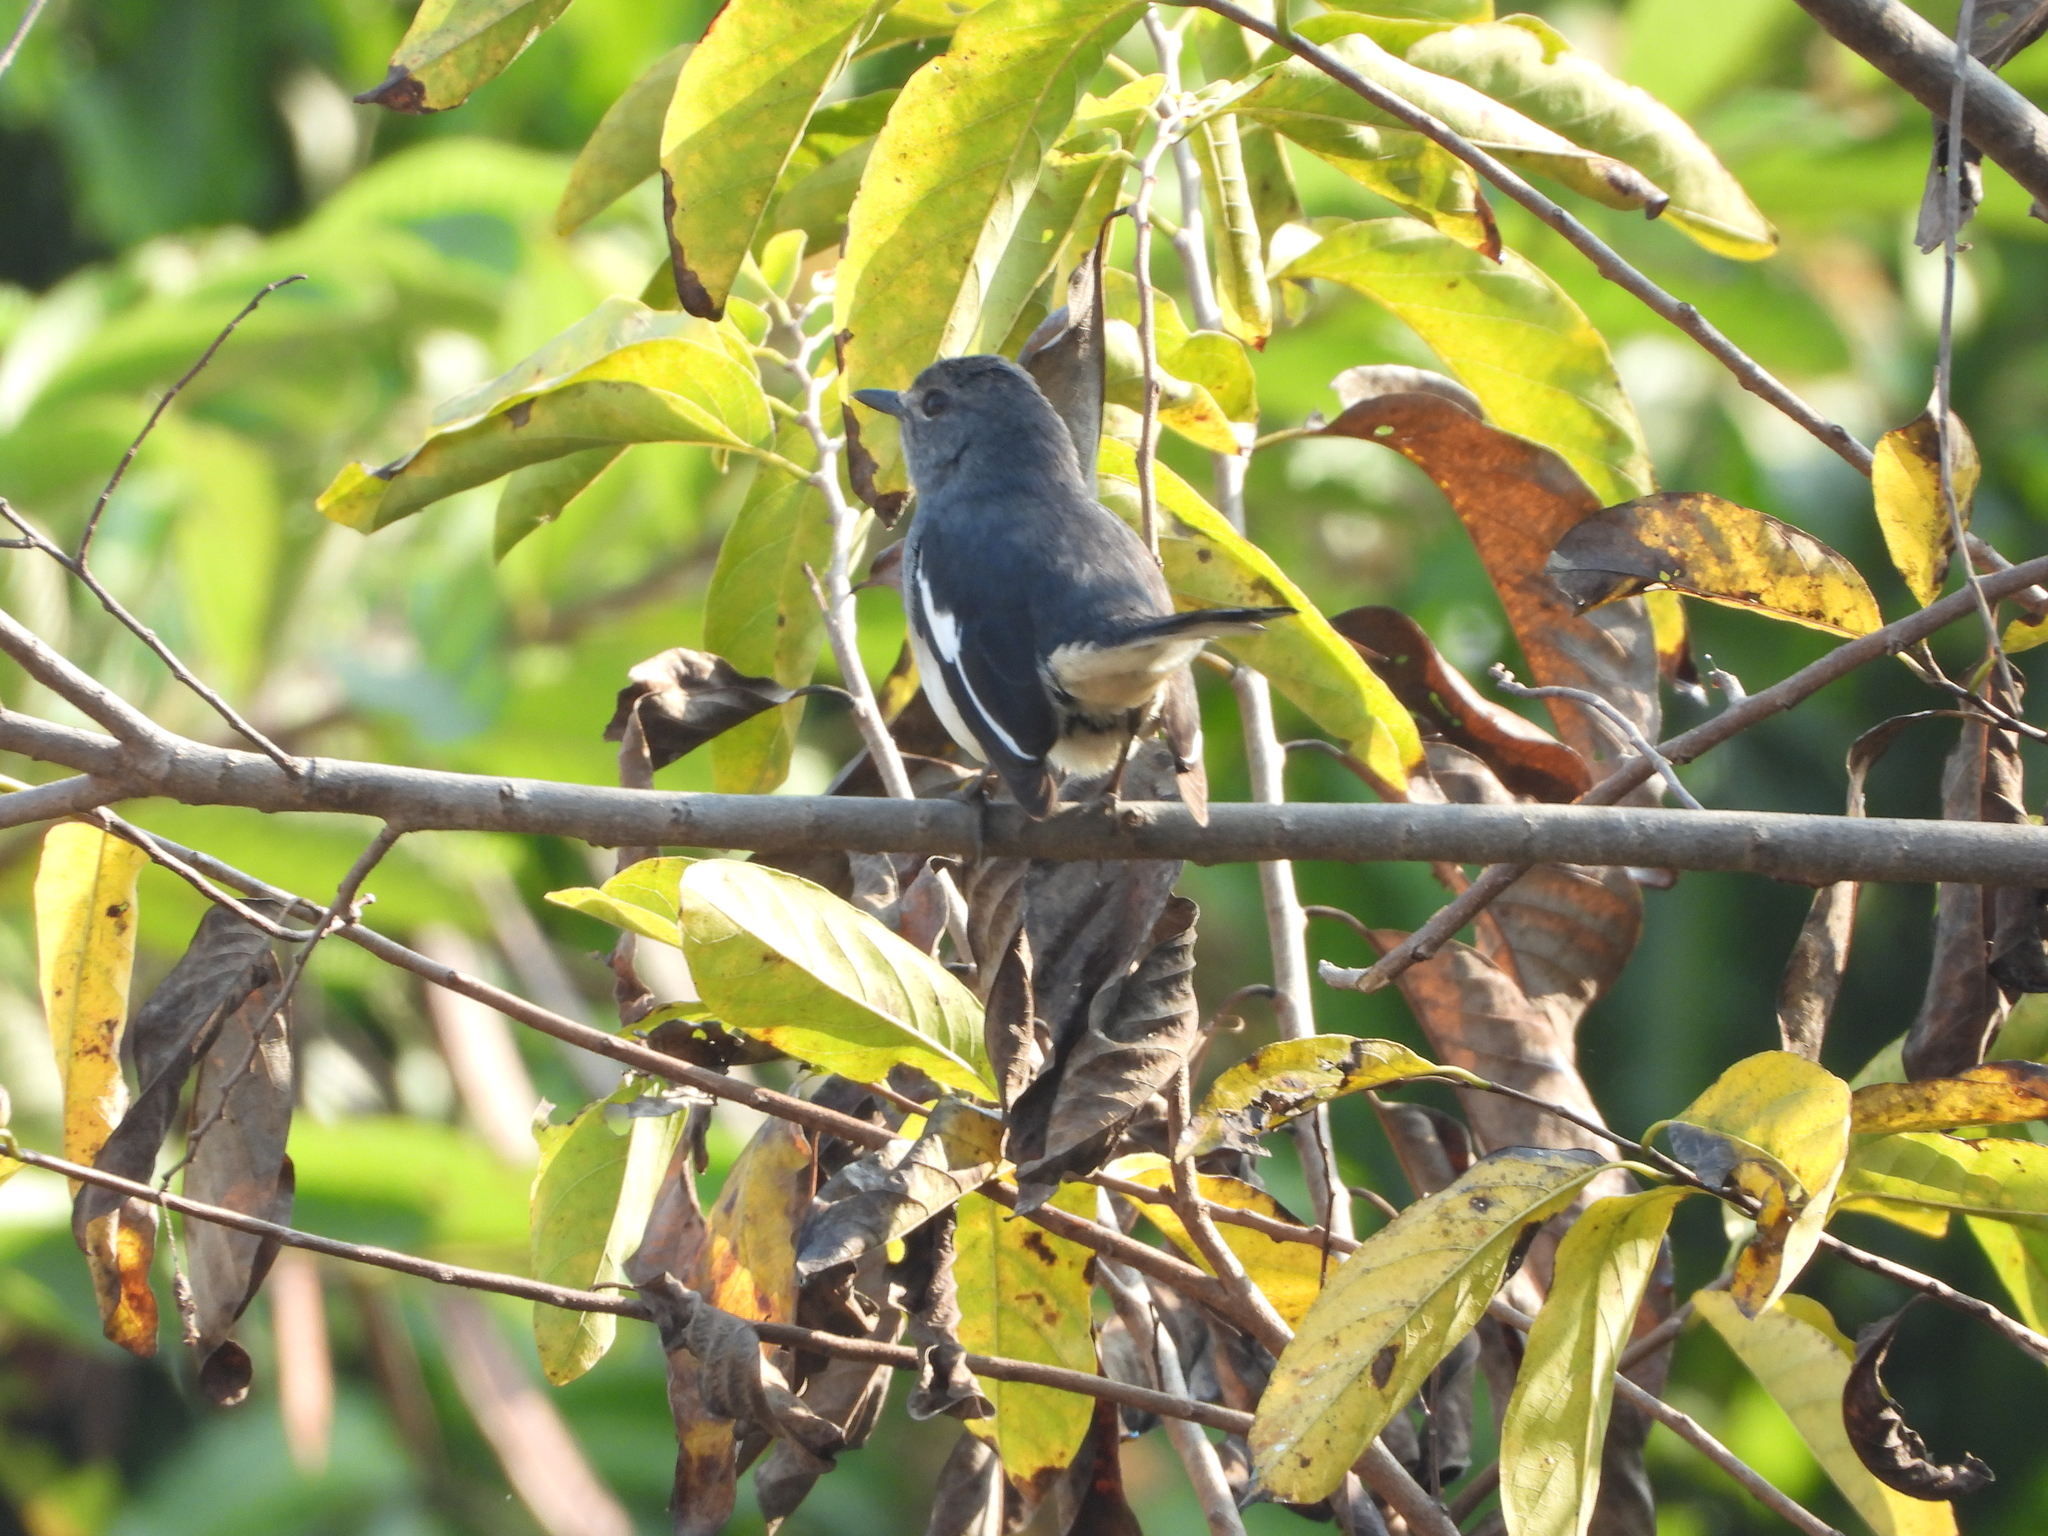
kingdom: Animalia
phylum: Chordata
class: Aves
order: Passeriformes
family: Muscicapidae
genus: Copsychus
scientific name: Copsychus saularis
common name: Oriental magpie-robin
